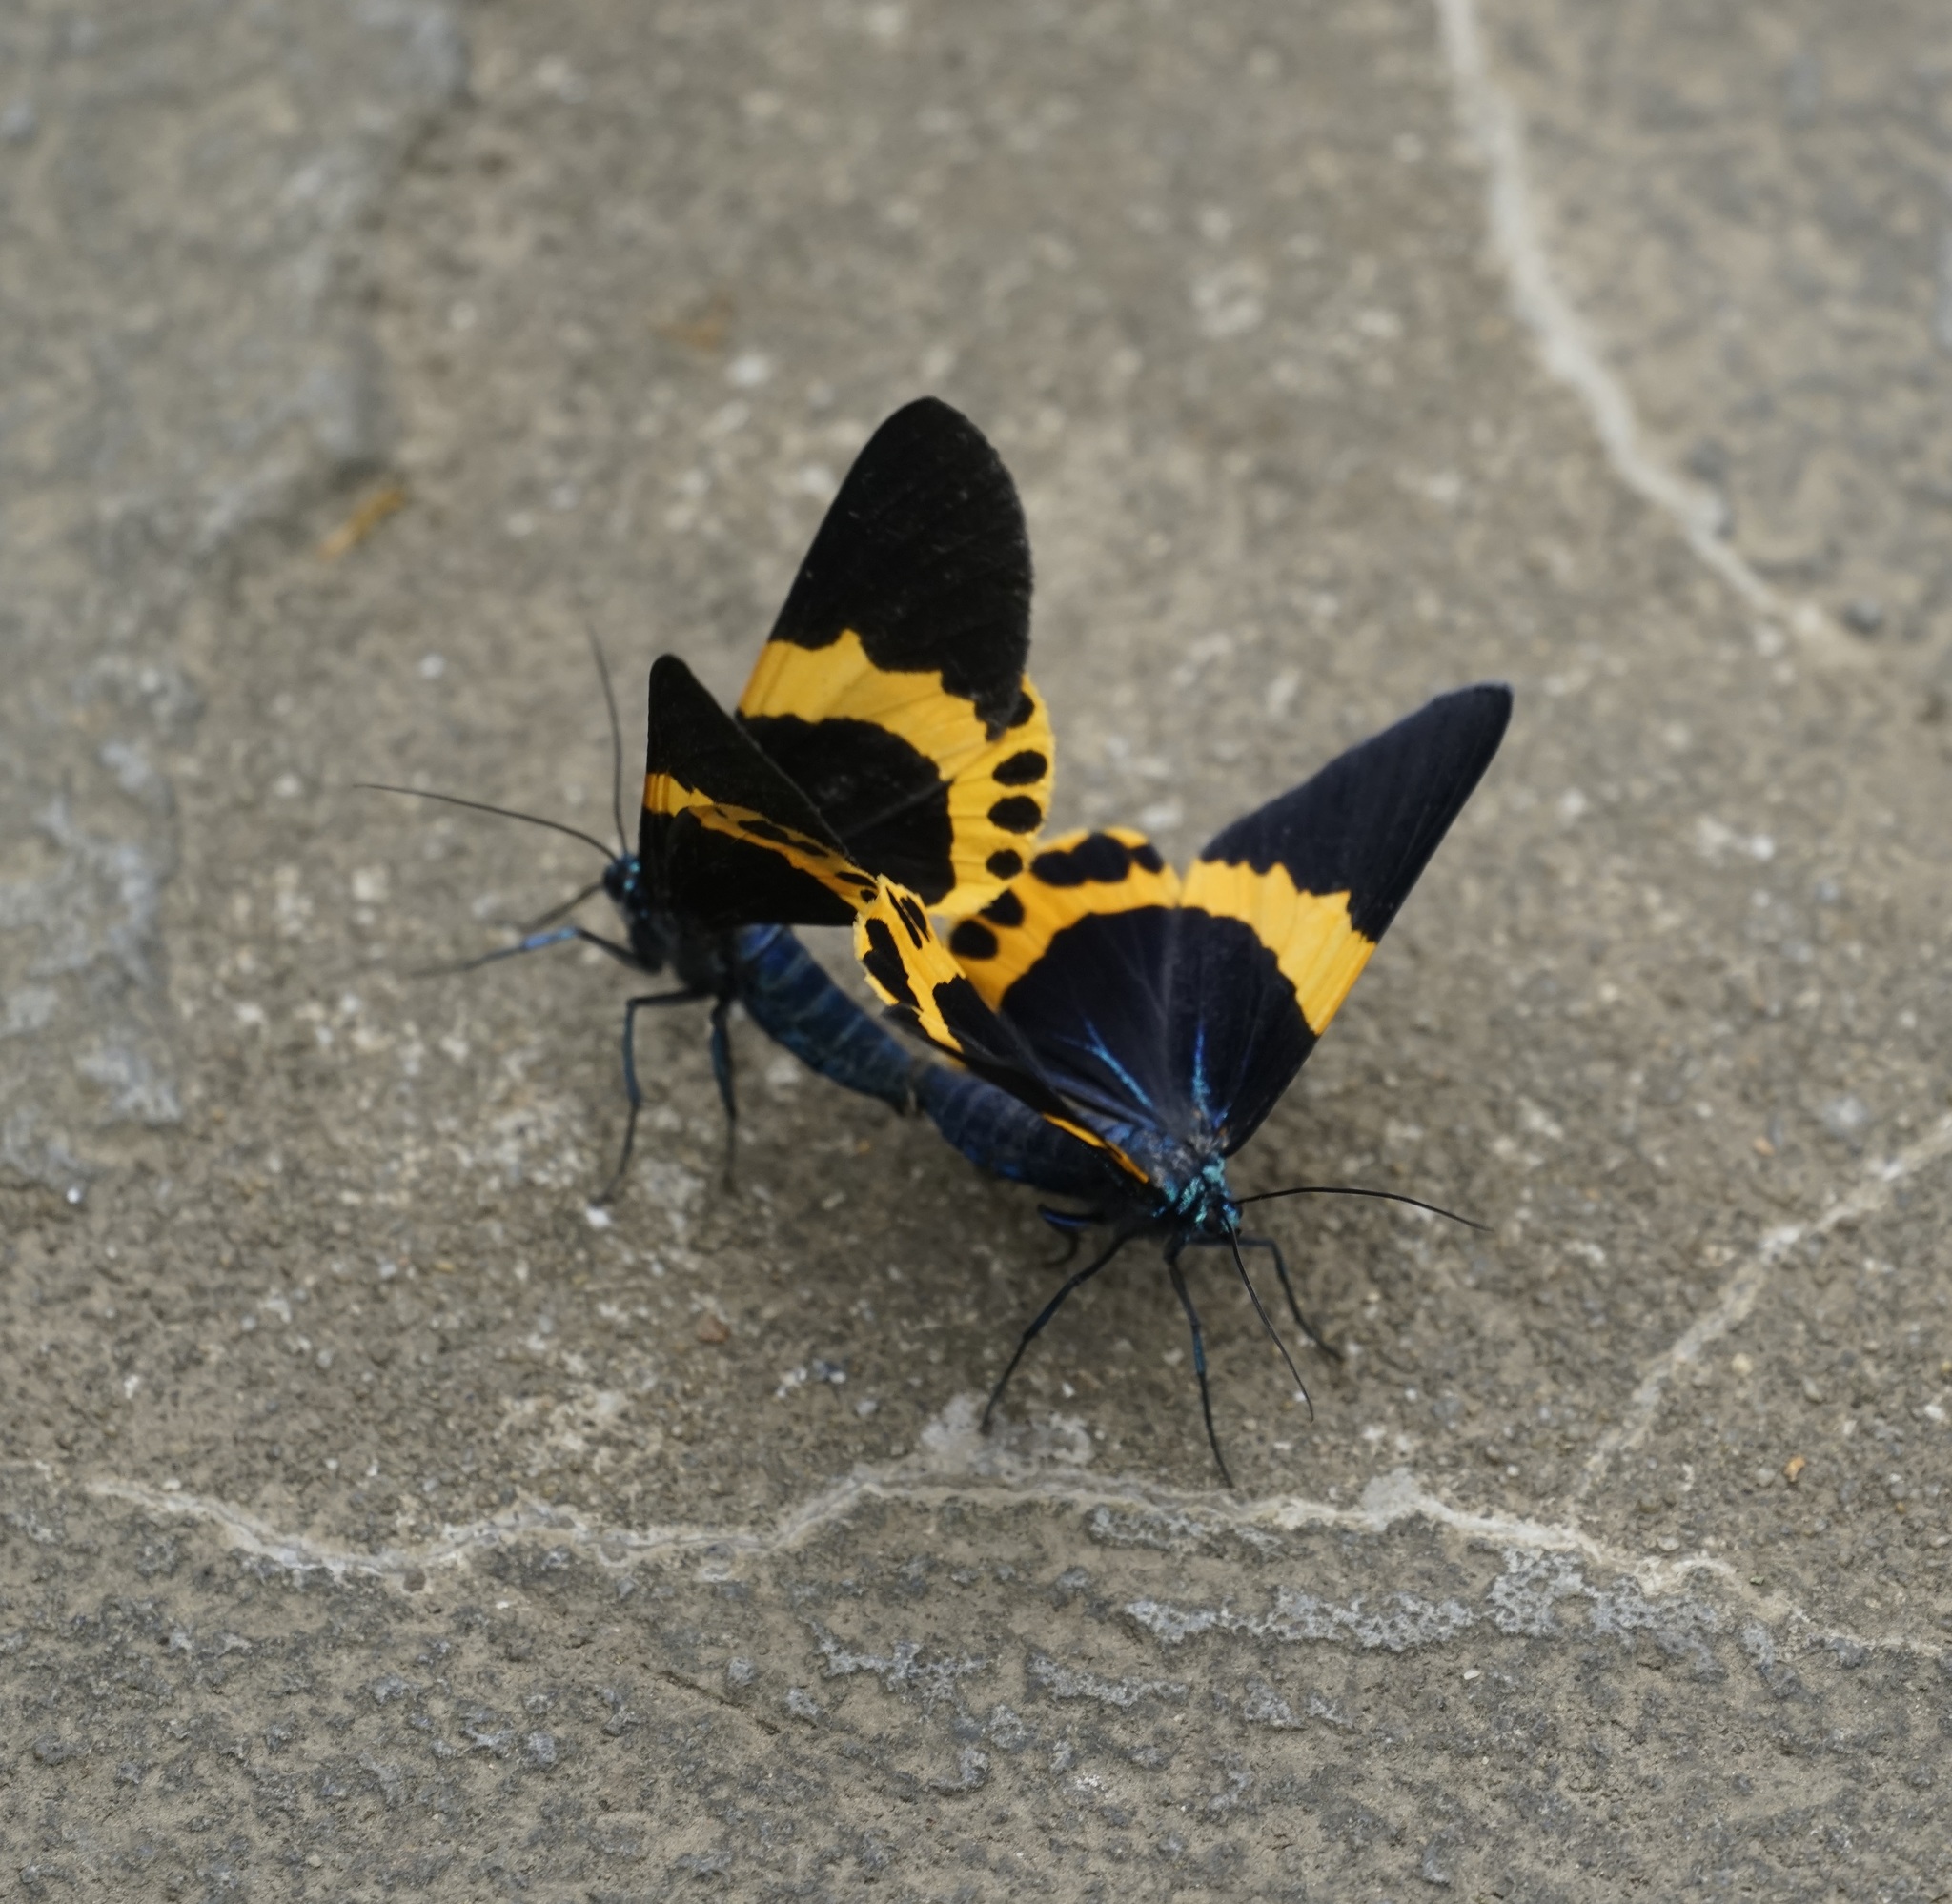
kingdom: Animalia
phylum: Arthropoda
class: Insecta
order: Lepidoptera
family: Geometridae
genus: Milionia
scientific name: Milionia basalis
